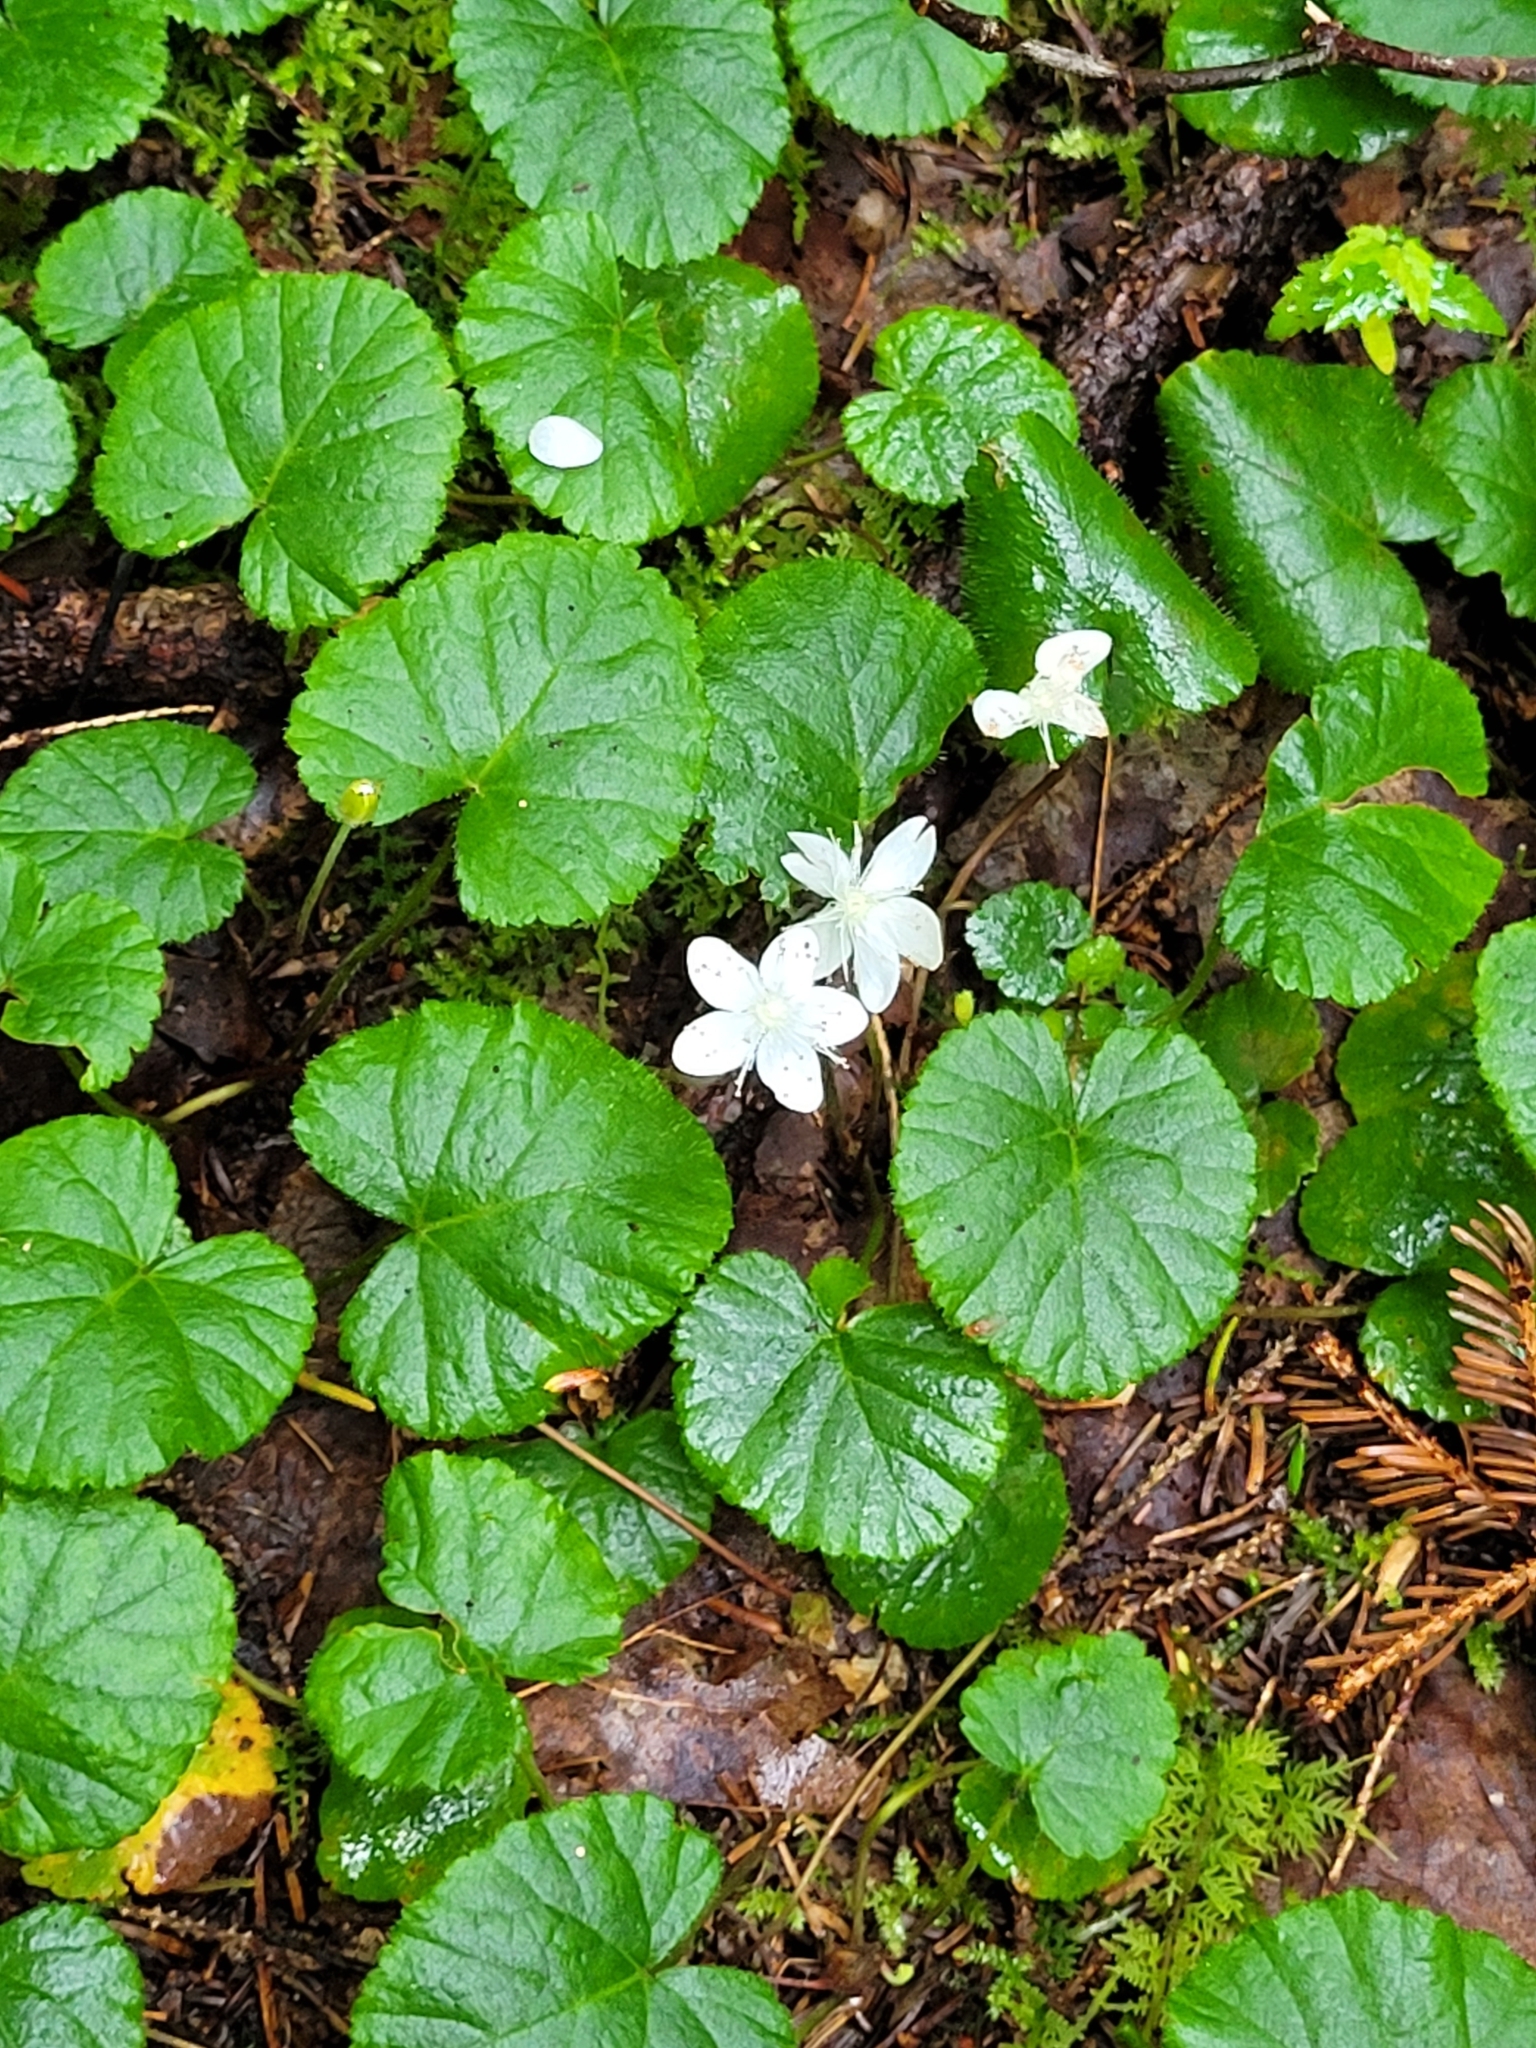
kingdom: Plantae
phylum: Tracheophyta
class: Magnoliopsida
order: Rosales
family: Rosaceae
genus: Dalibarda
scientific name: Dalibarda repens
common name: Dewdrop
